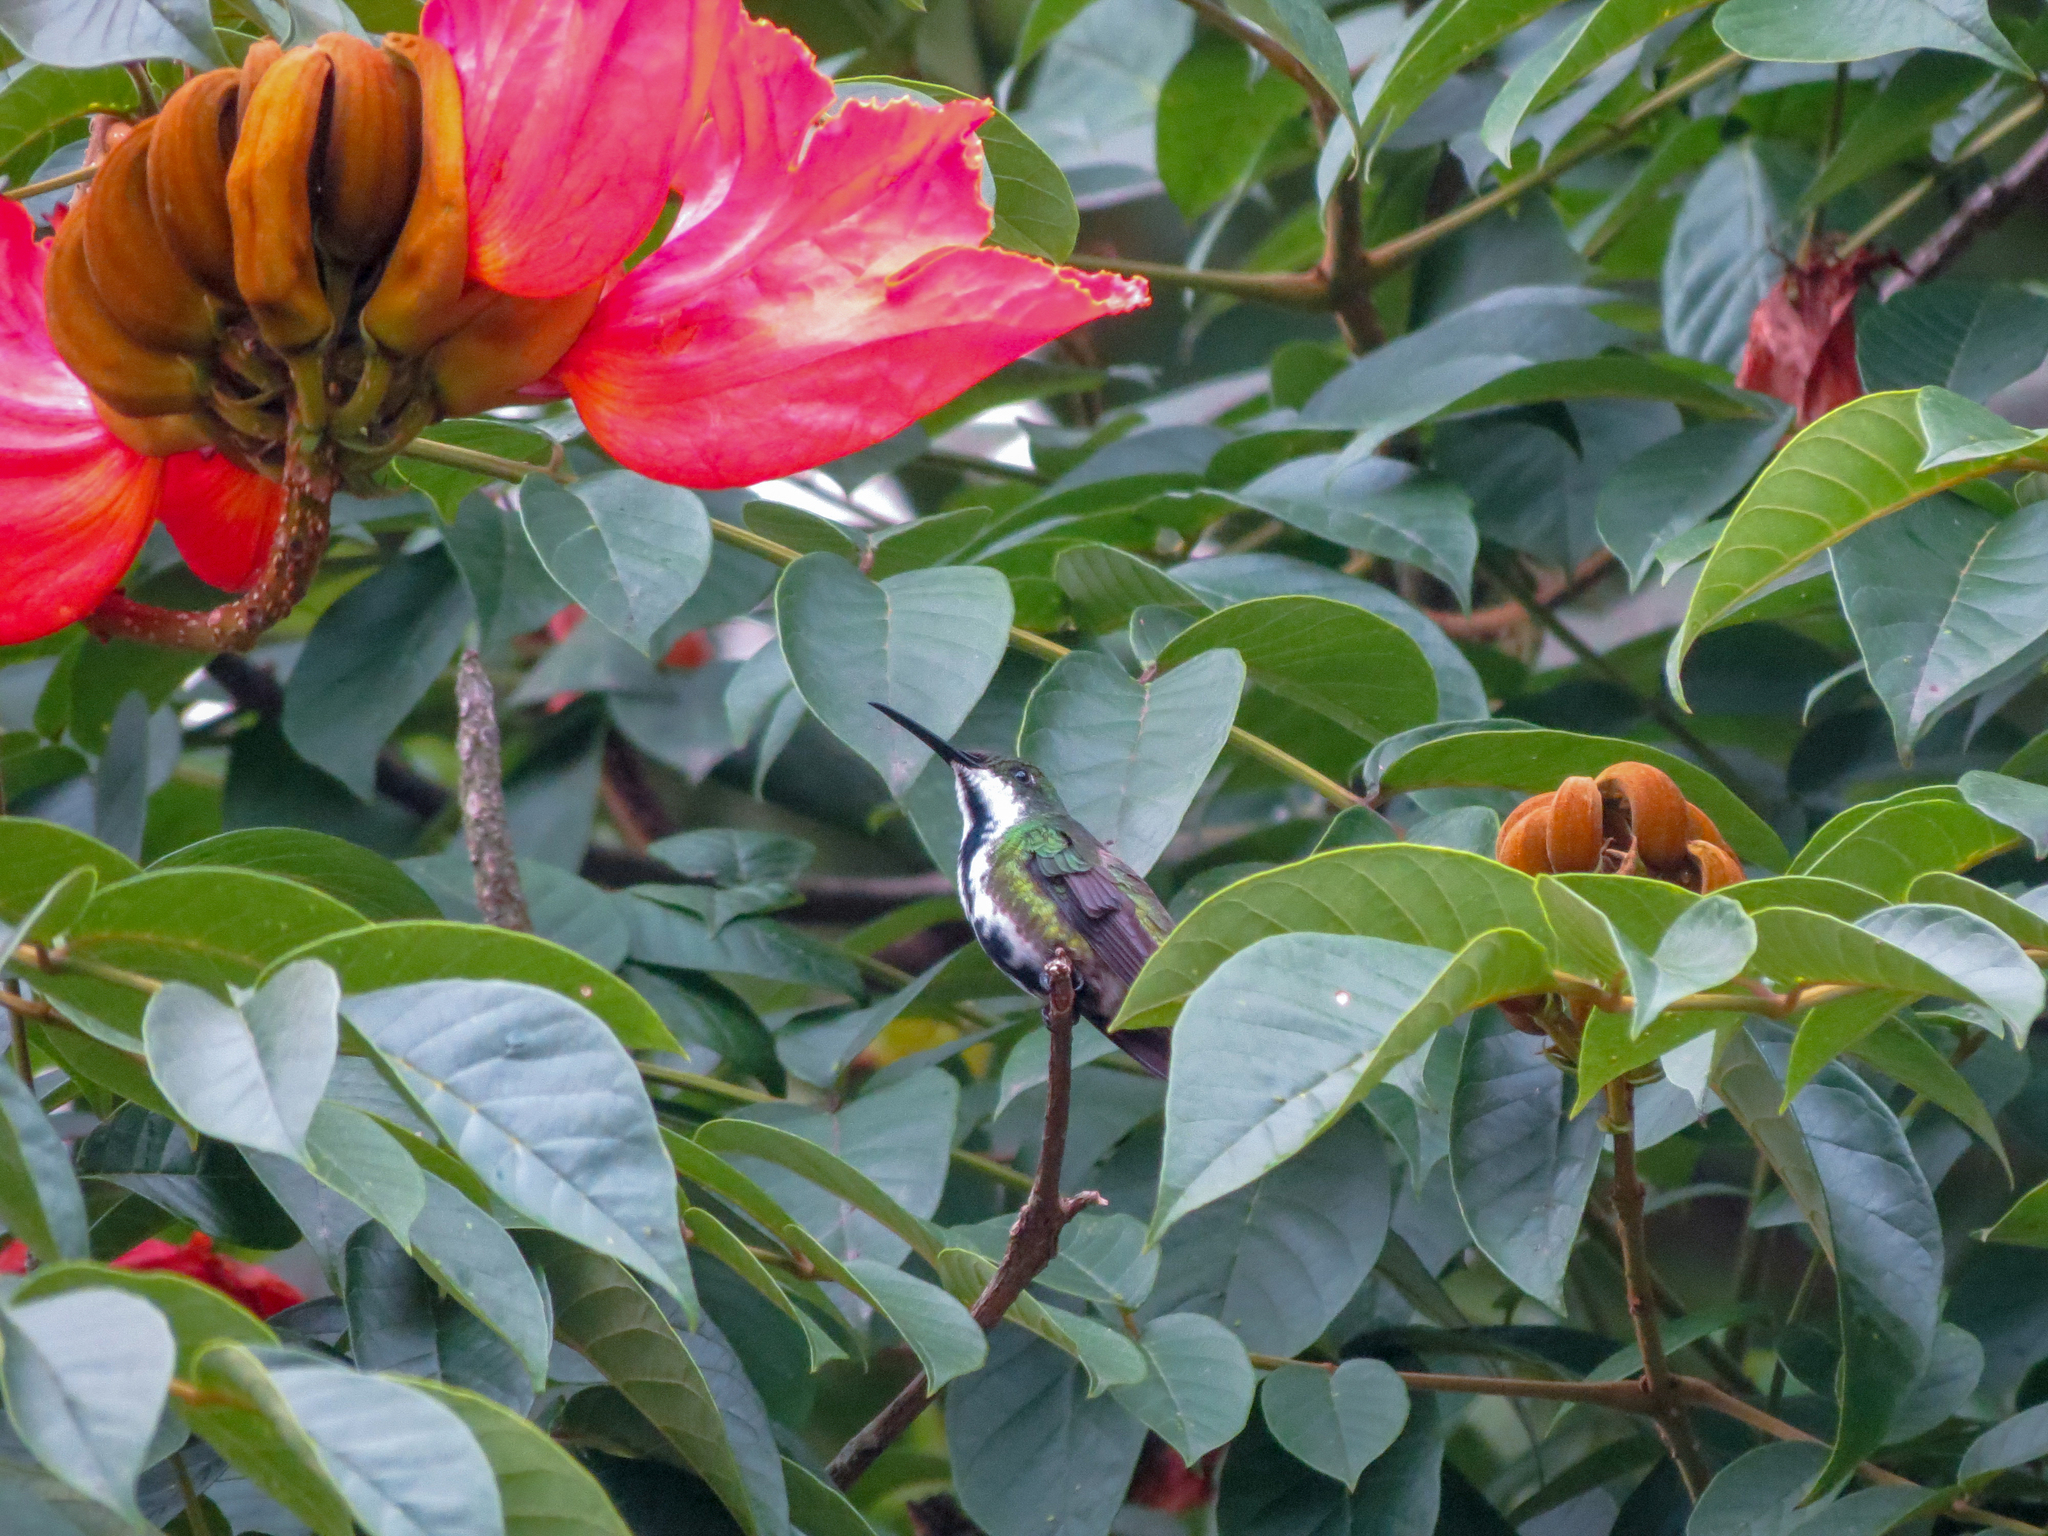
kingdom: Animalia
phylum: Chordata
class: Aves
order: Apodiformes
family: Trochilidae
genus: Anthracothorax
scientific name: Anthracothorax nigricollis
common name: Black-throated mango
